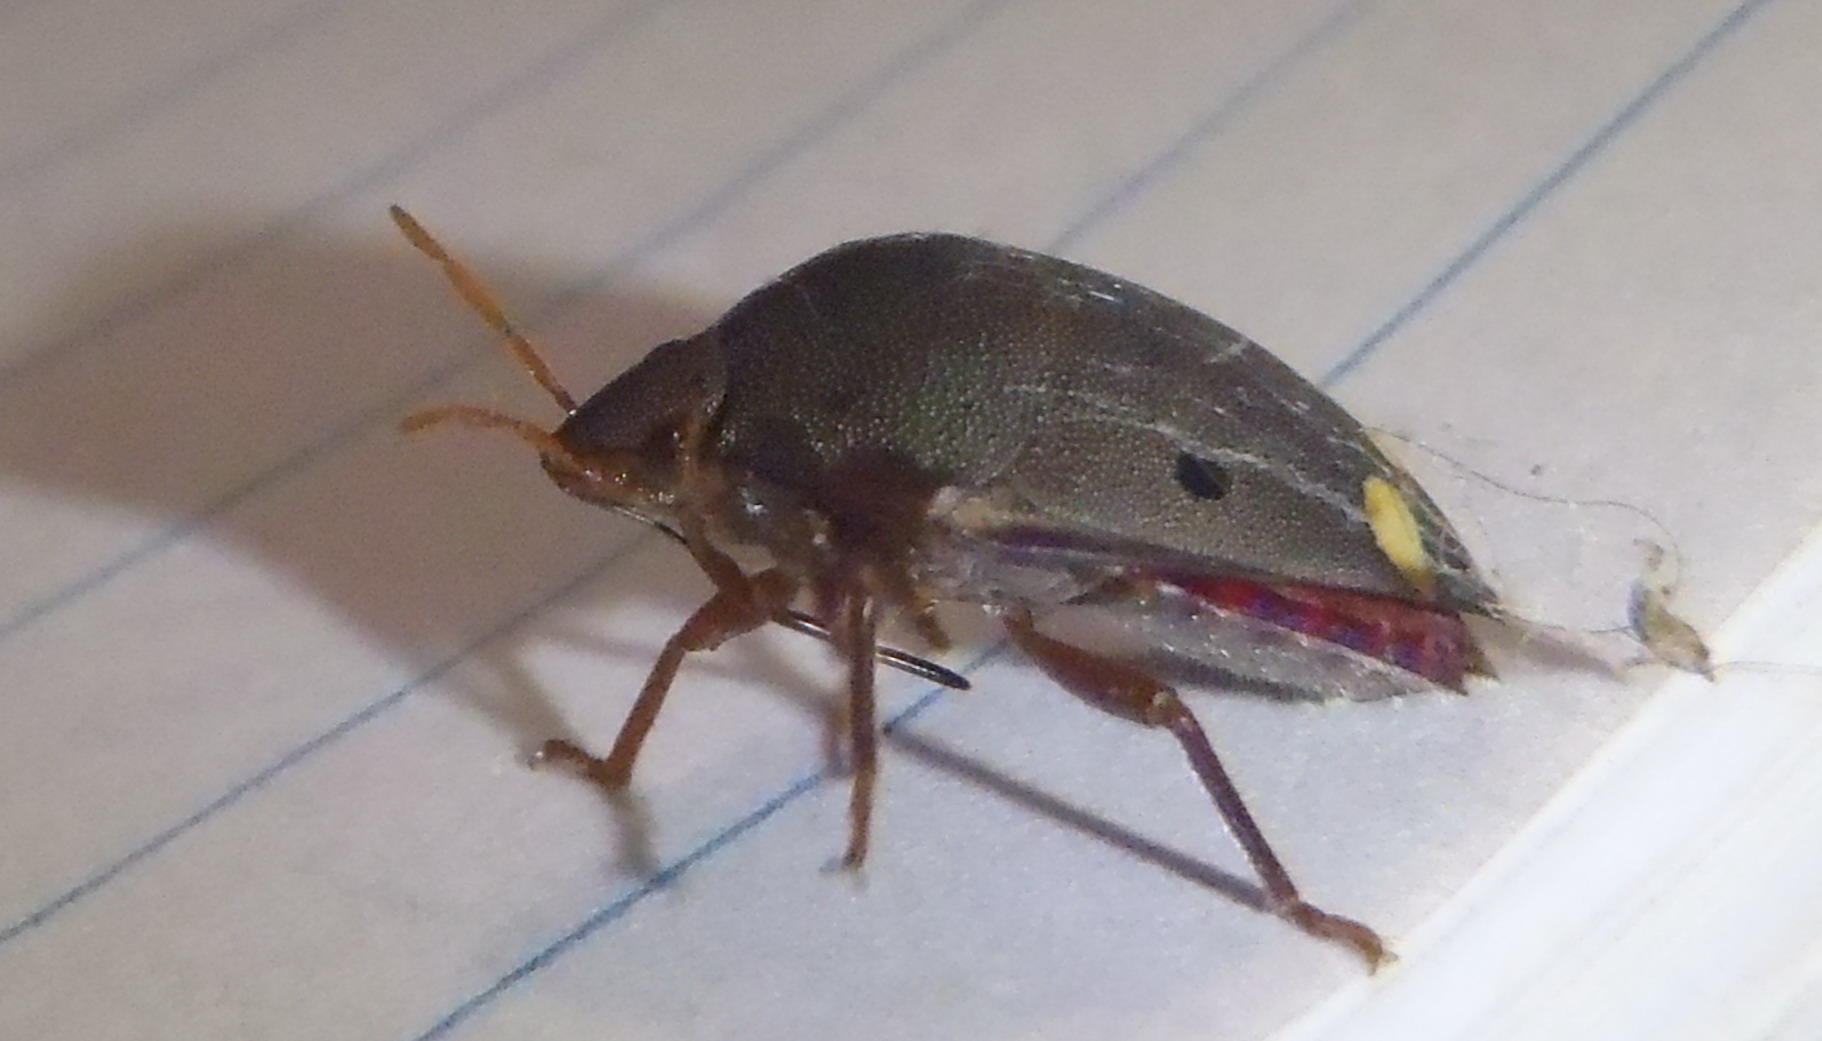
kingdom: Animalia
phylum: Arthropoda
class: Insecta
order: Hemiptera
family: Scutelleridae
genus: Solenosthedium
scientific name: Solenosthedium
